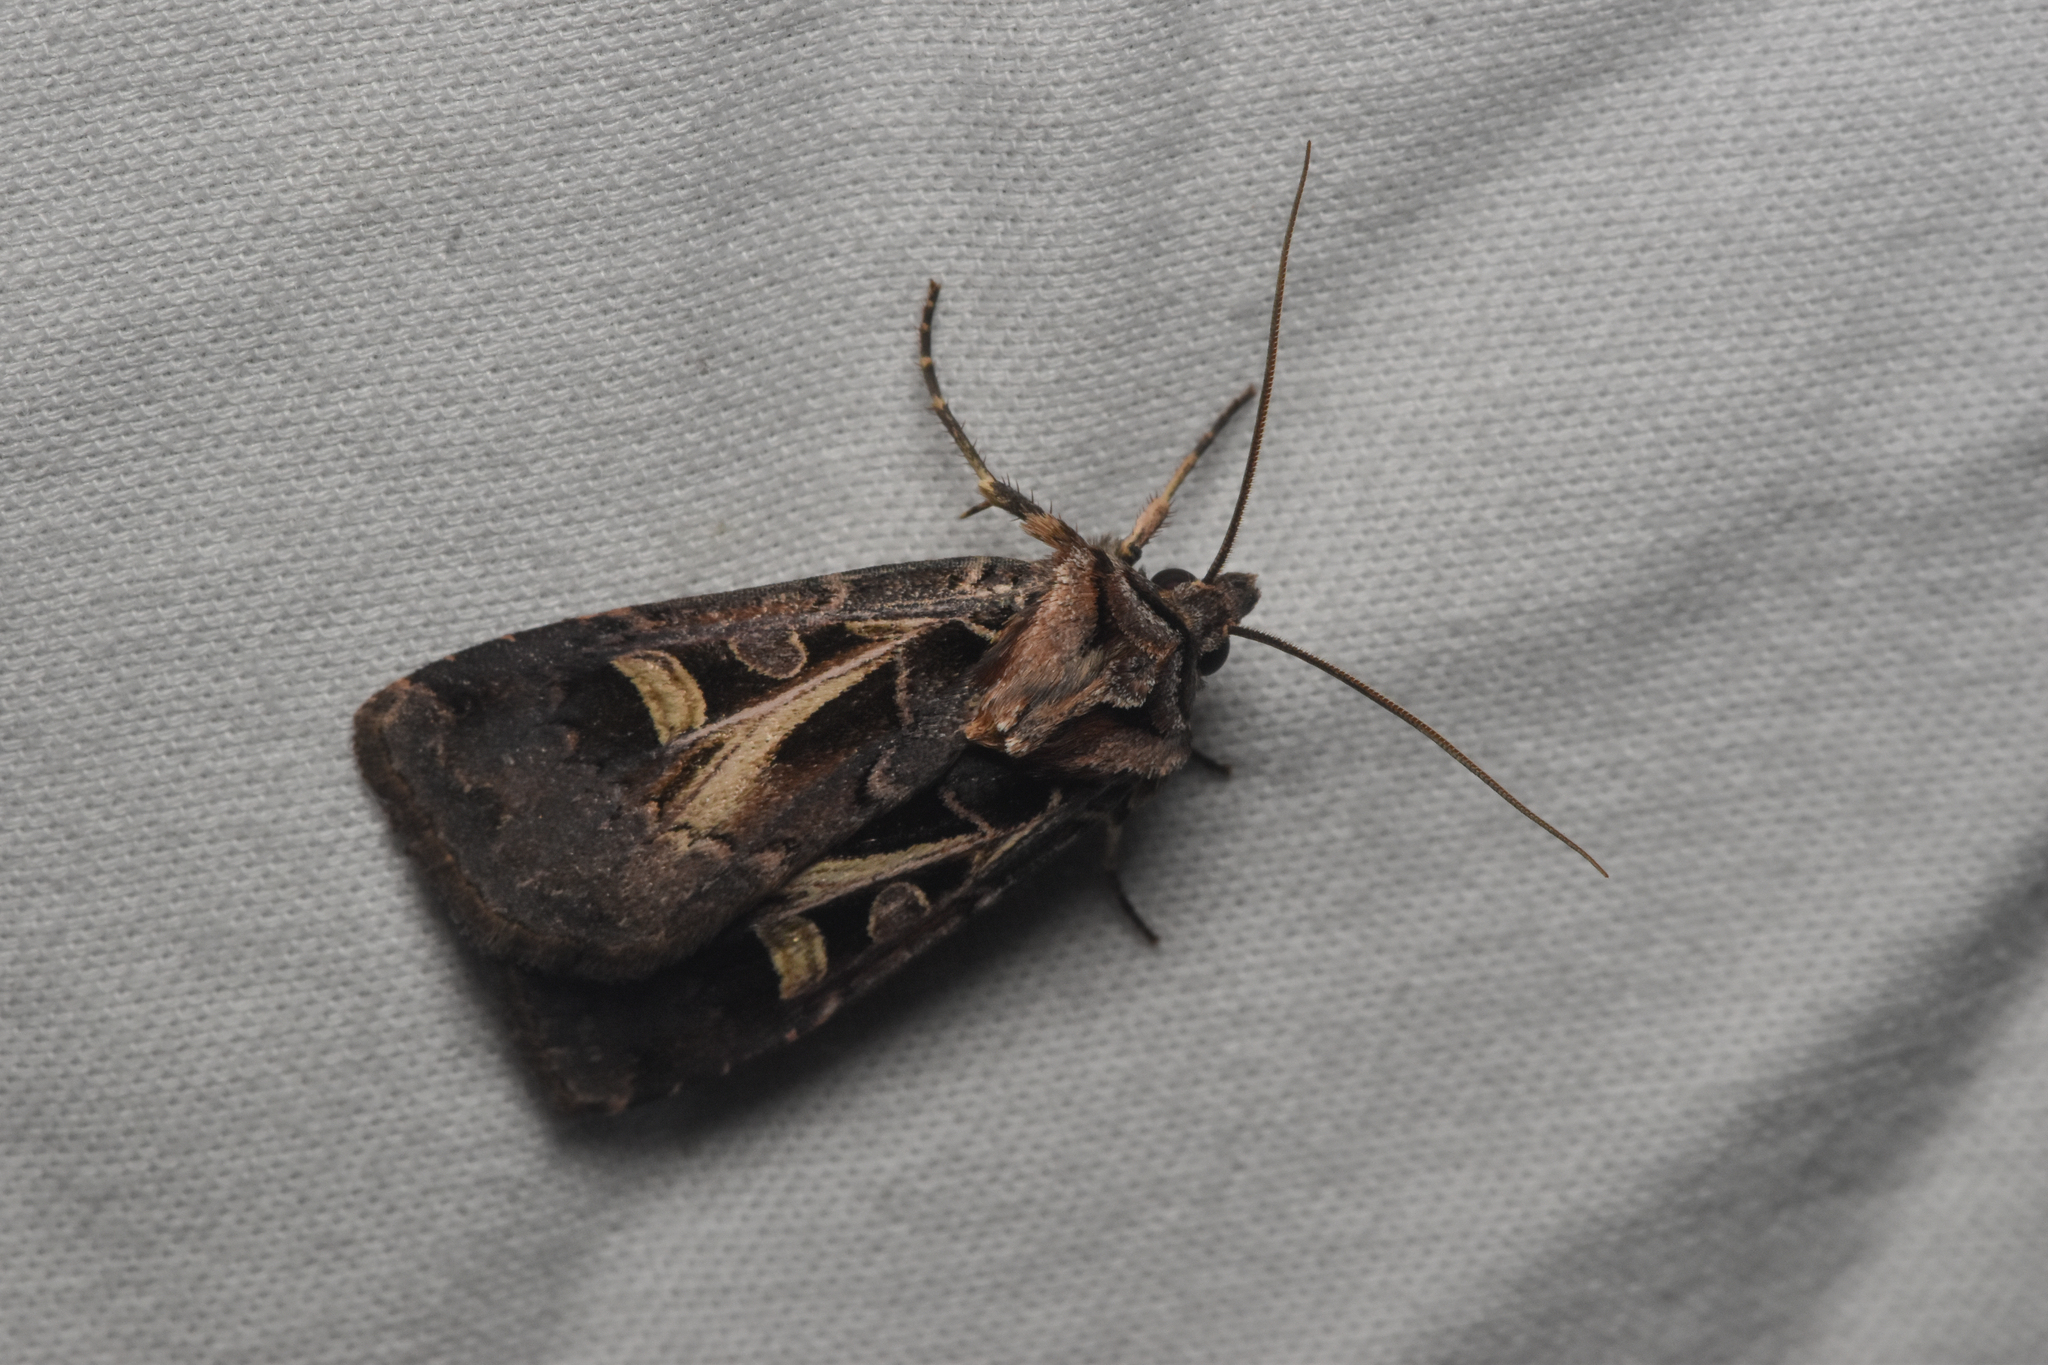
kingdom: Animalia
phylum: Arthropoda
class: Insecta
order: Lepidoptera
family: Noctuidae
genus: Feltia
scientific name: Feltia herilis
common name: Master's dart
